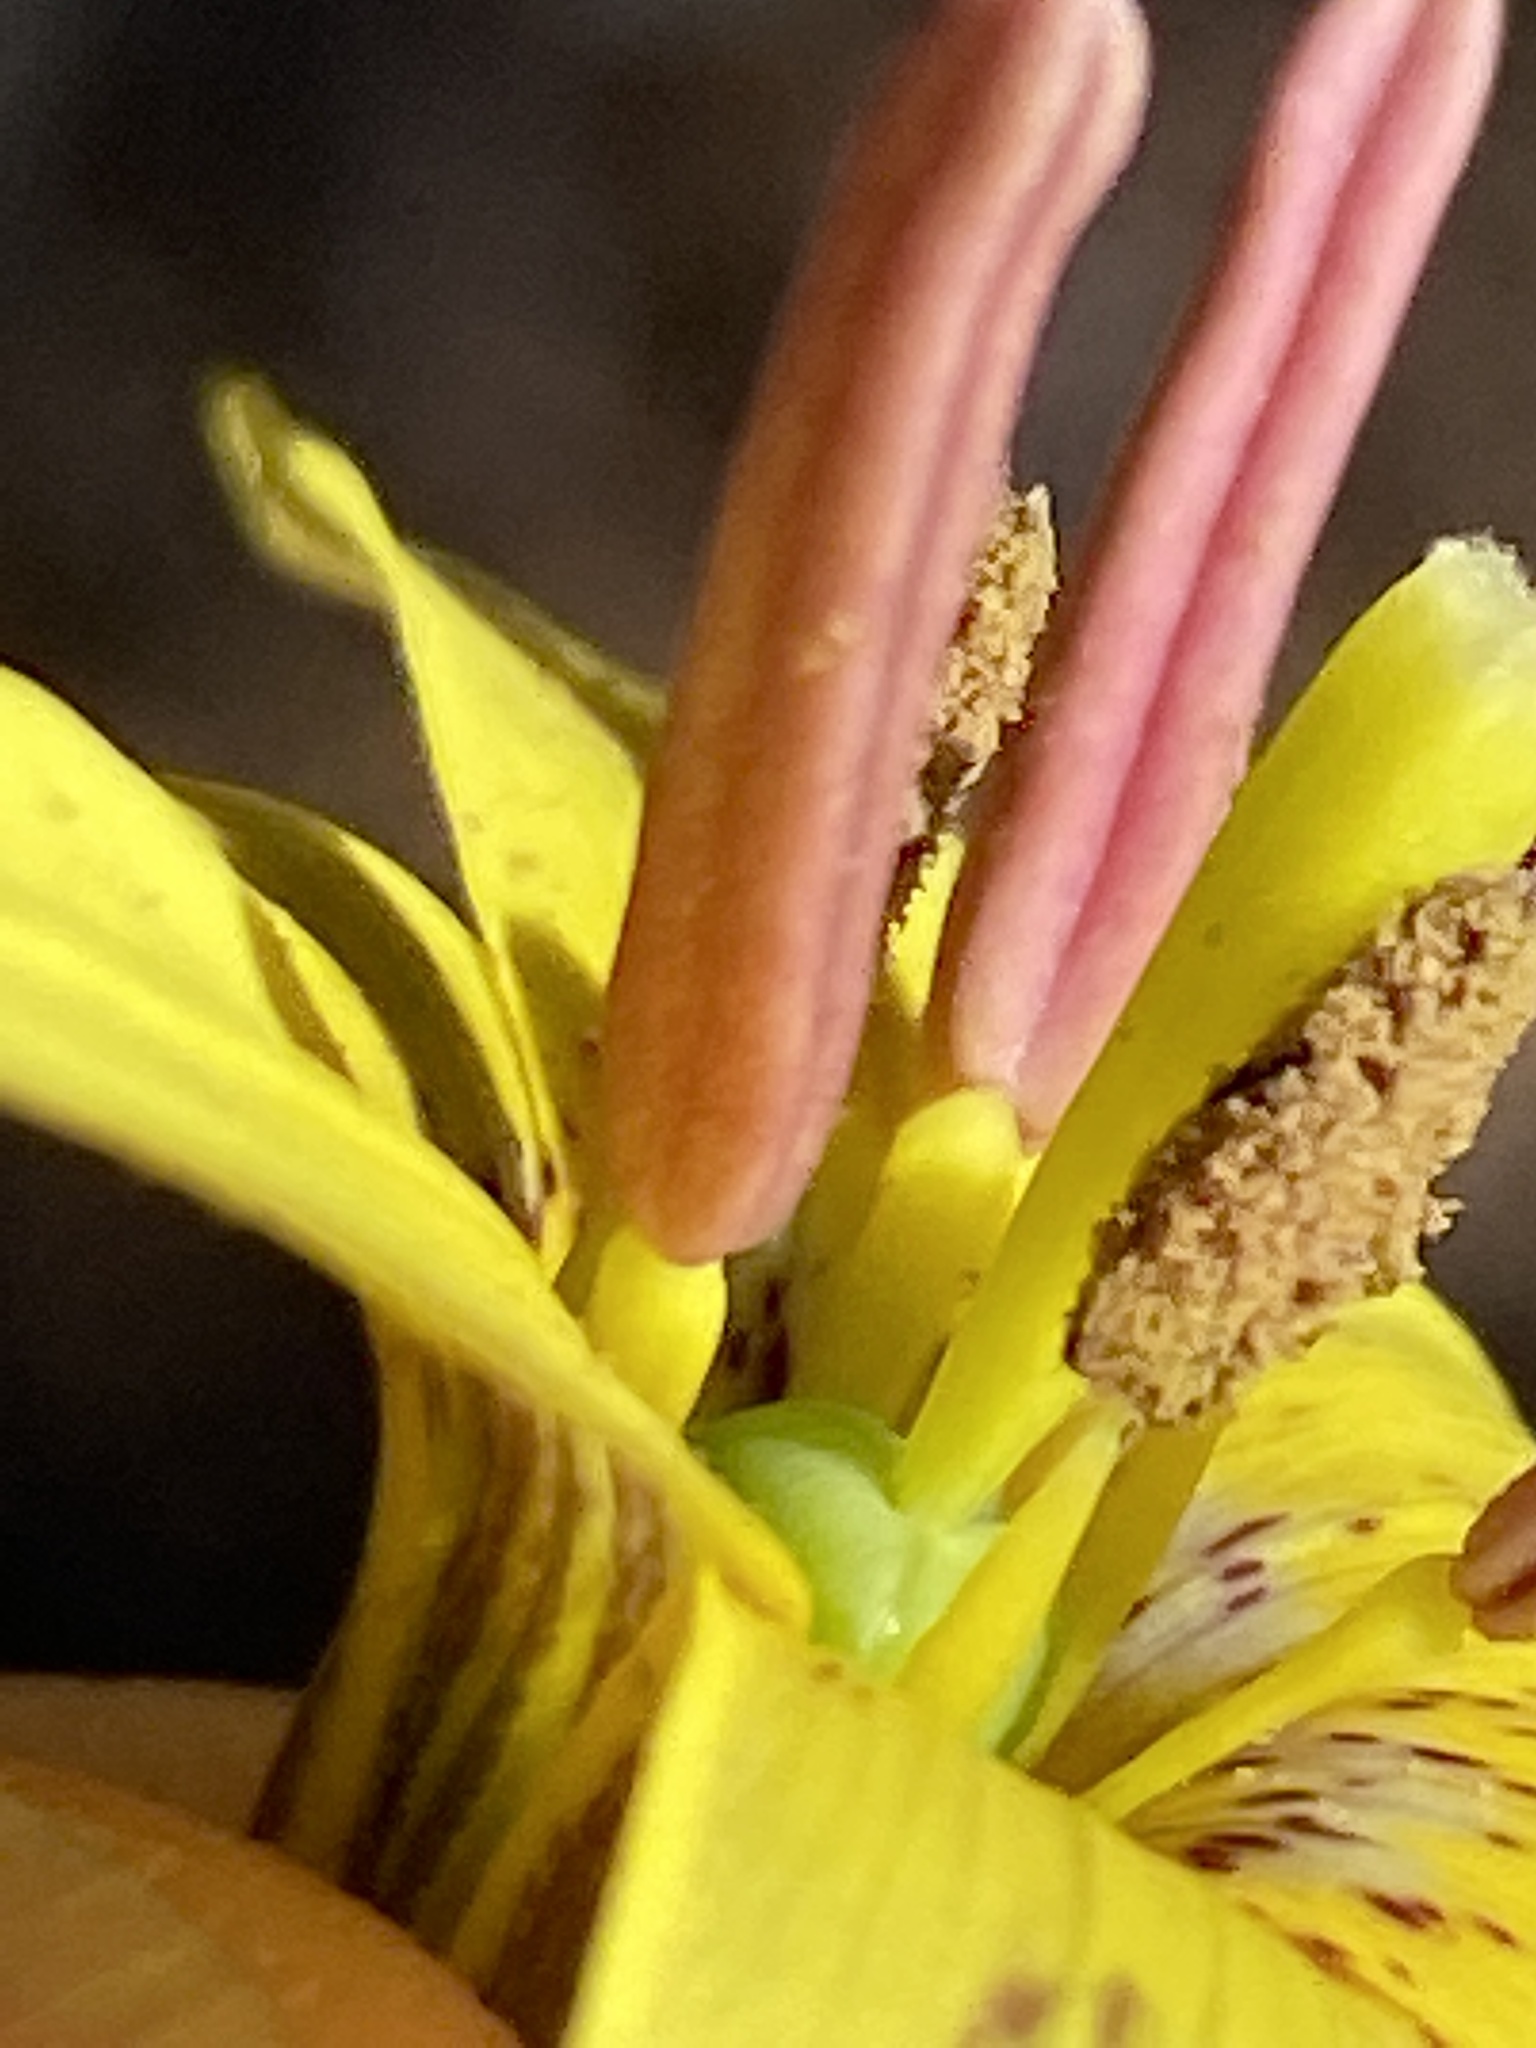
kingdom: Plantae
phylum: Tracheophyta
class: Liliopsida
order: Liliales
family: Liliaceae
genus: Erythronium
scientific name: Erythronium umbilicatum
